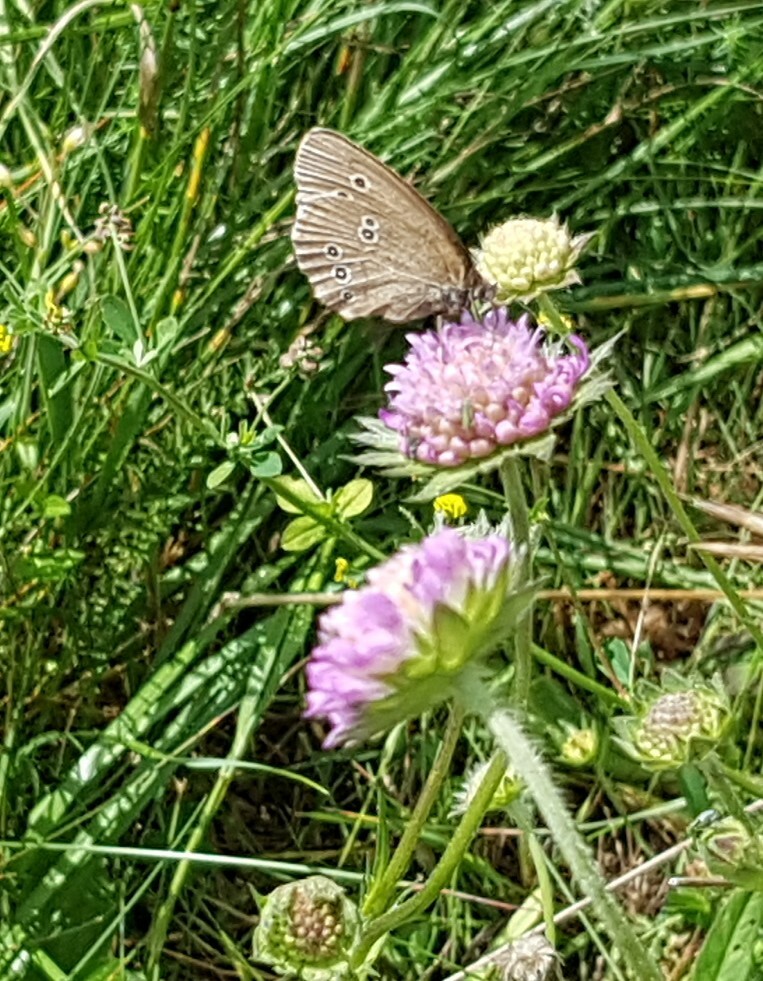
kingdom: Animalia
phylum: Arthropoda
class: Insecta
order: Lepidoptera
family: Nymphalidae
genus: Aphantopus
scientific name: Aphantopus hyperantus
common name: Ringlet
